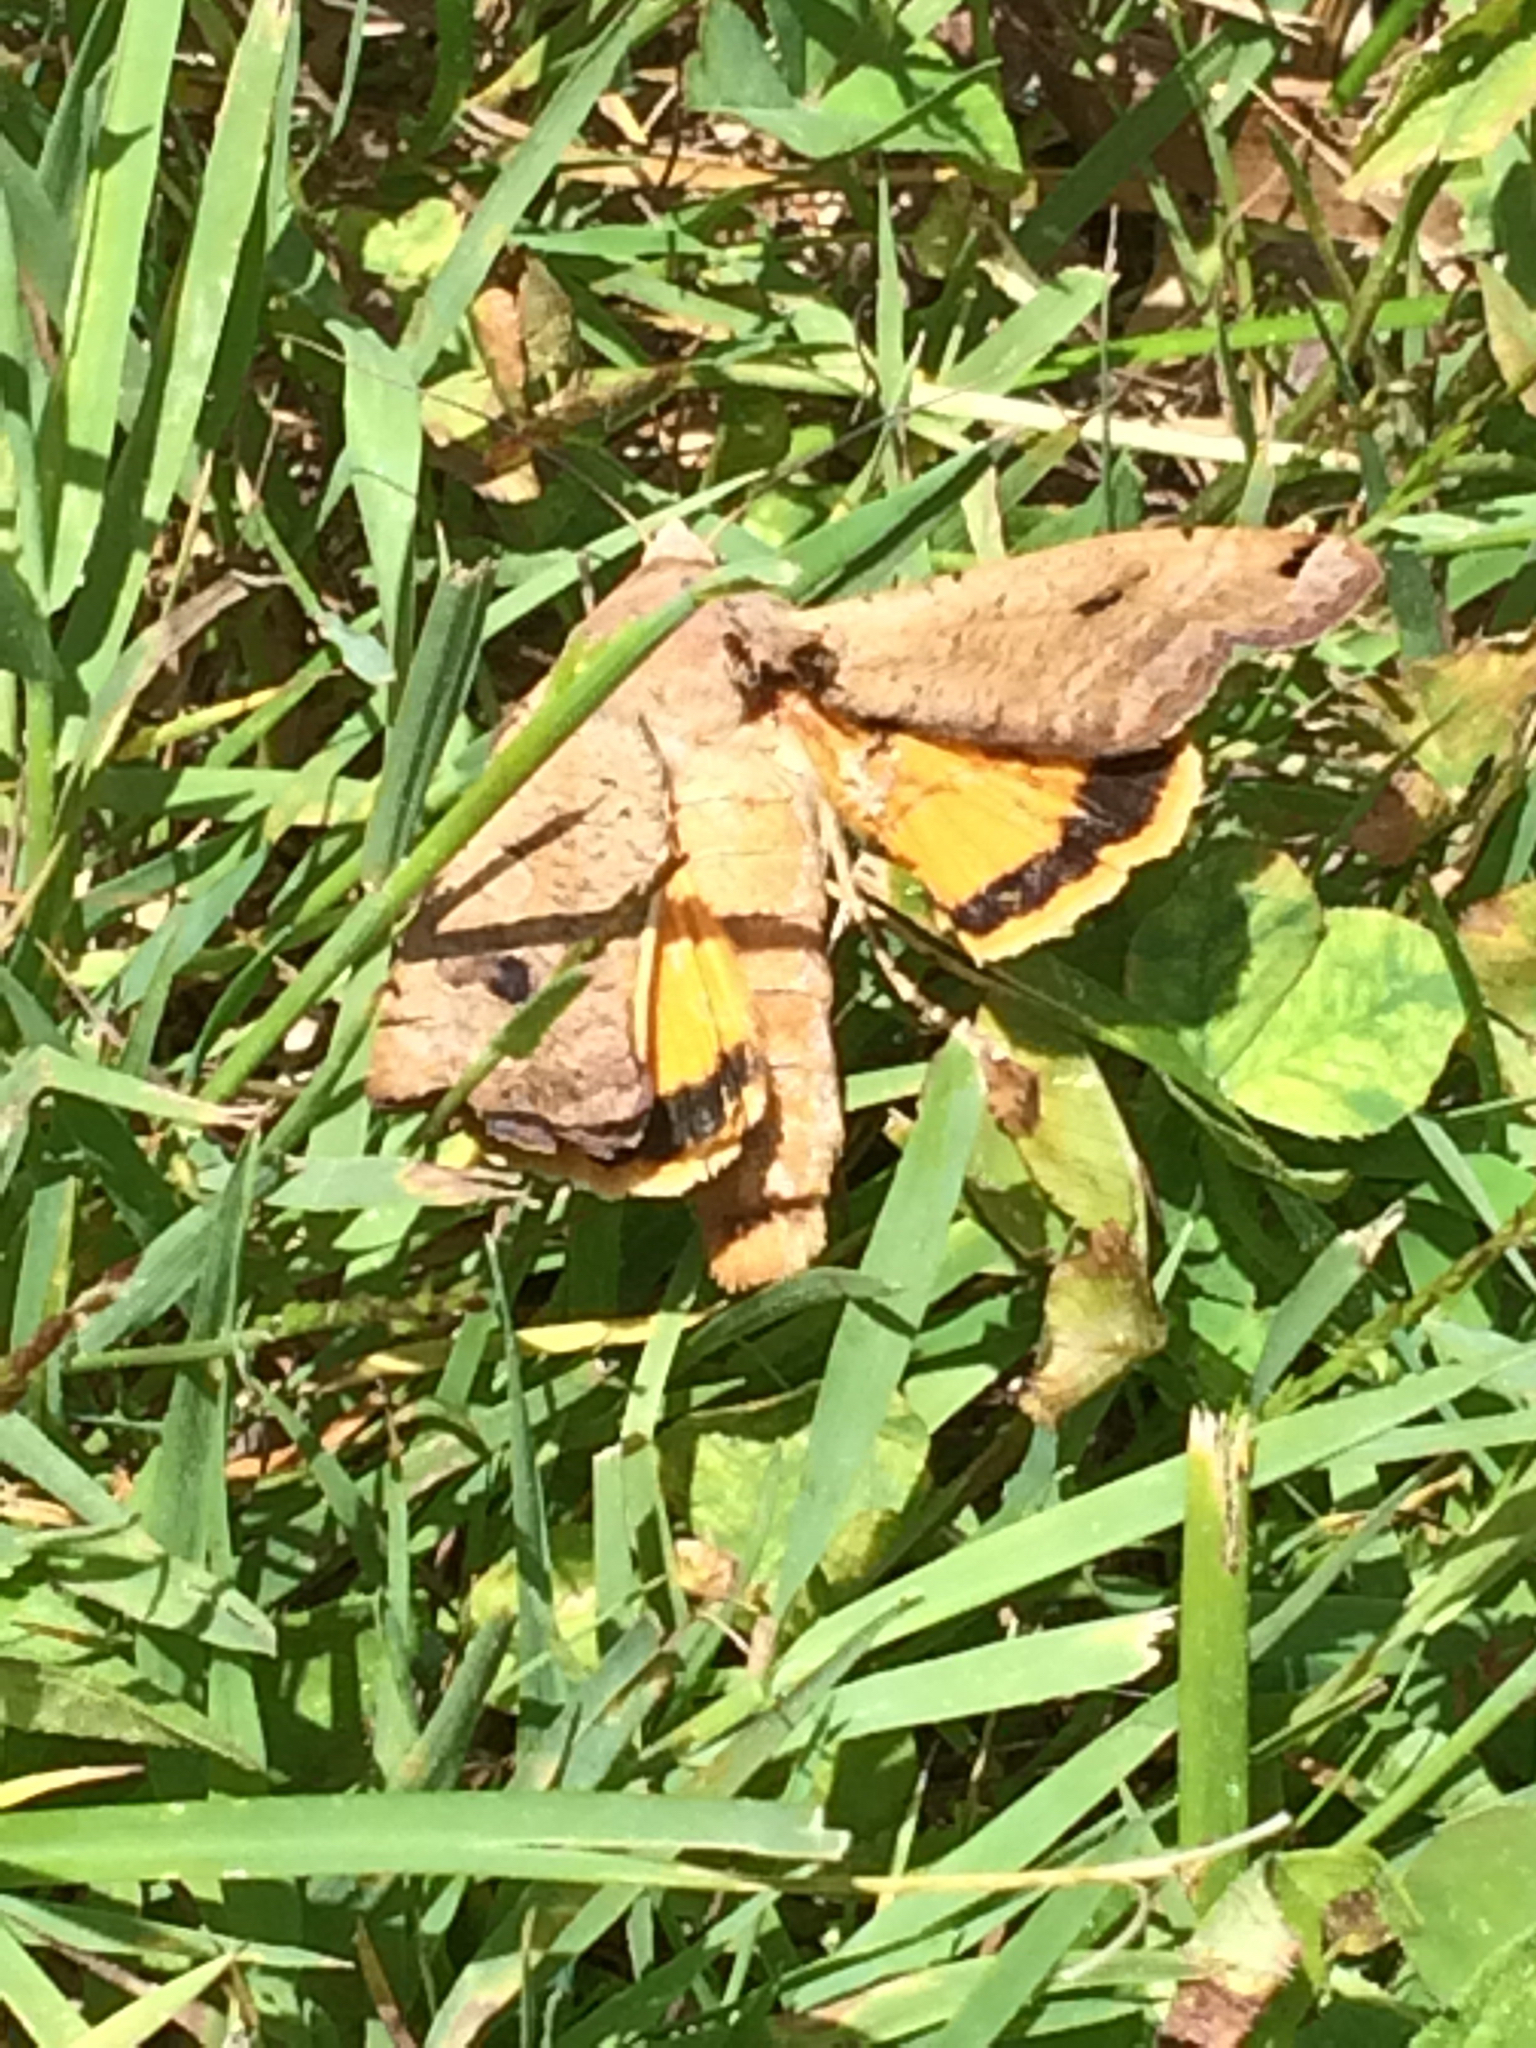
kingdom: Animalia
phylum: Arthropoda
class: Insecta
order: Lepidoptera
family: Noctuidae
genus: Noctua
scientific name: Noctua pronuba
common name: Large yellow underwing
